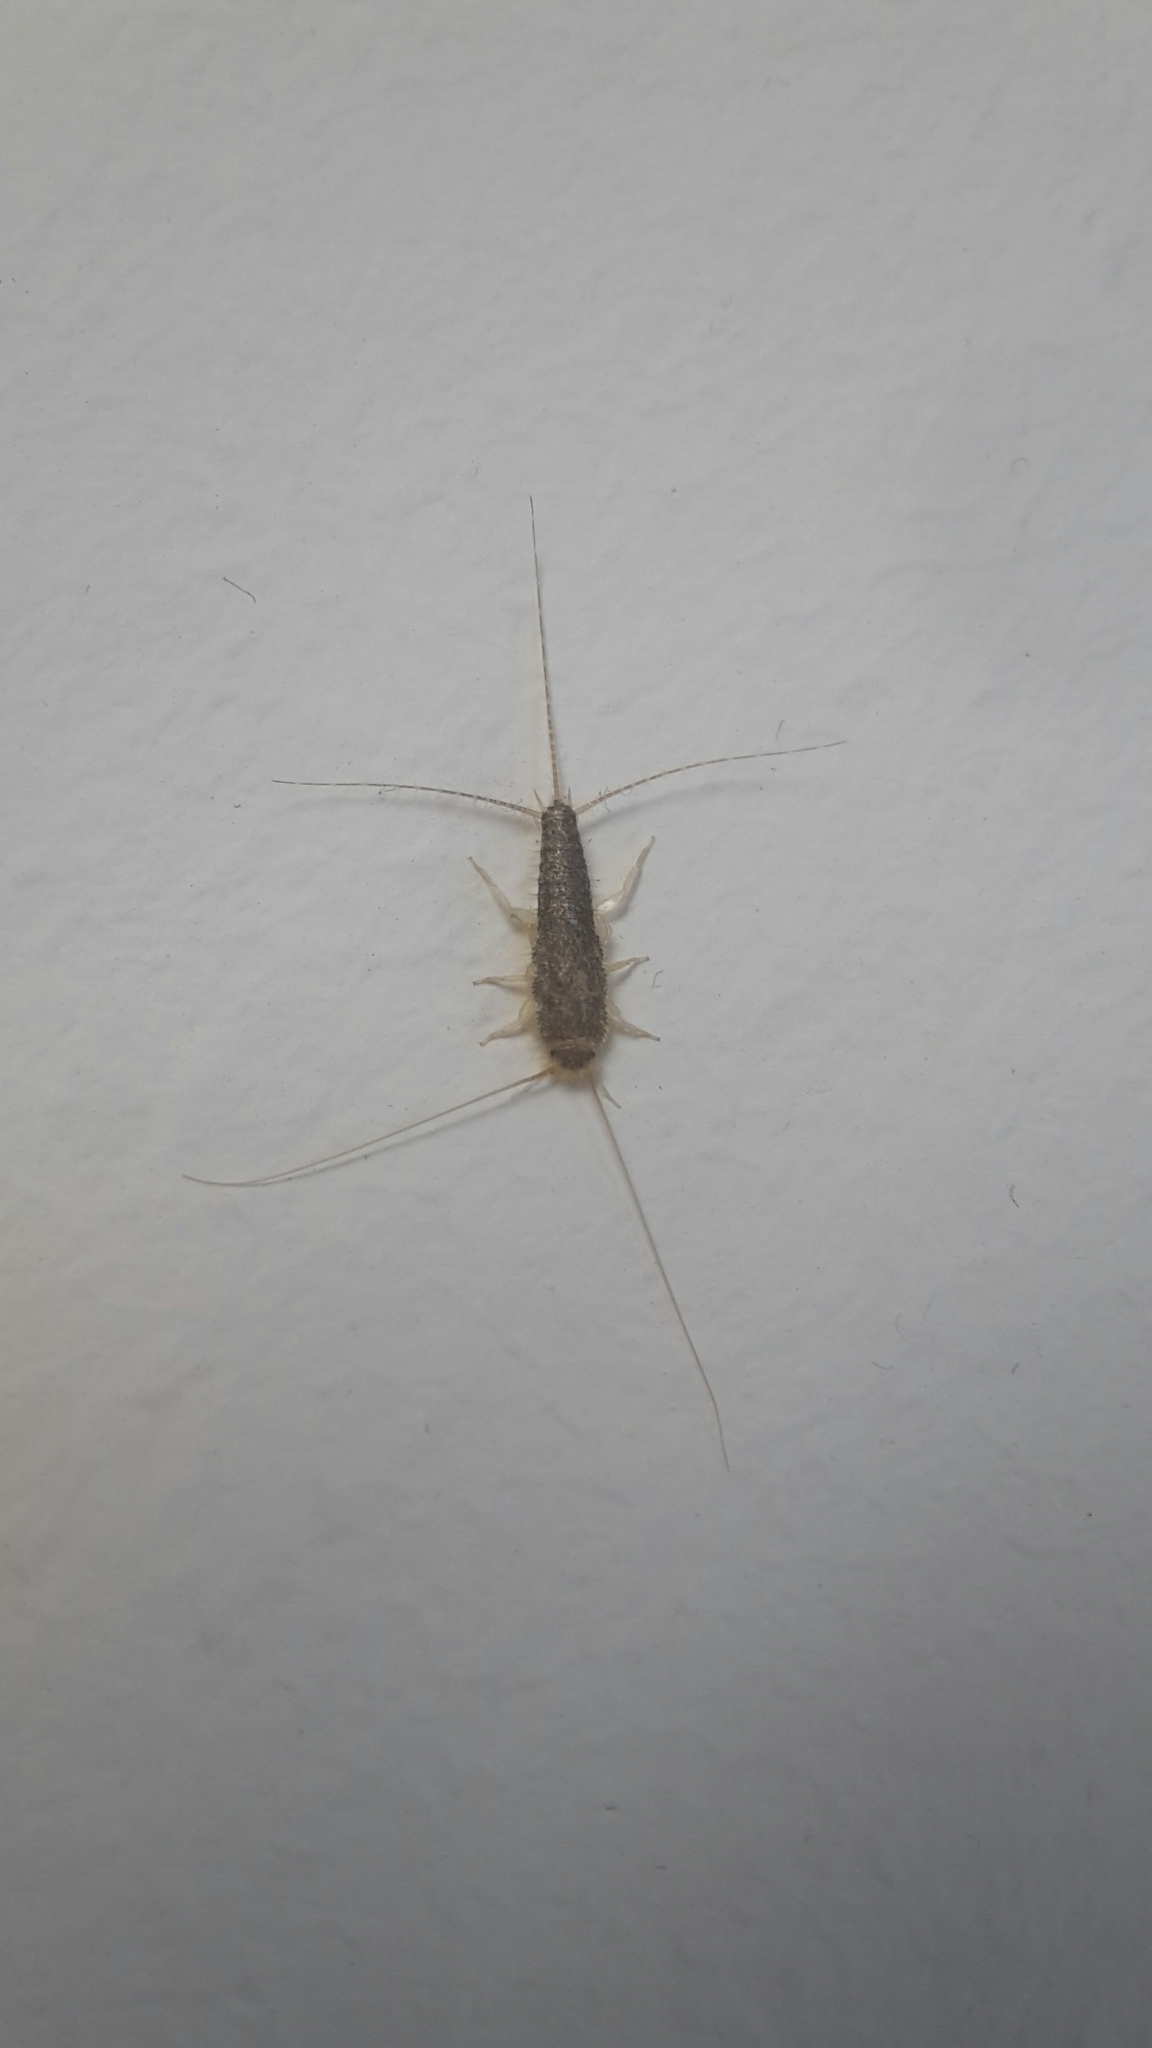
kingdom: Animalia
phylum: Arthropoda
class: Insecta
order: Zygentoma
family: Lepismatidae
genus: Ctenolepisma
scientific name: Ctenolepisma longicaudatum
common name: Silverfish
